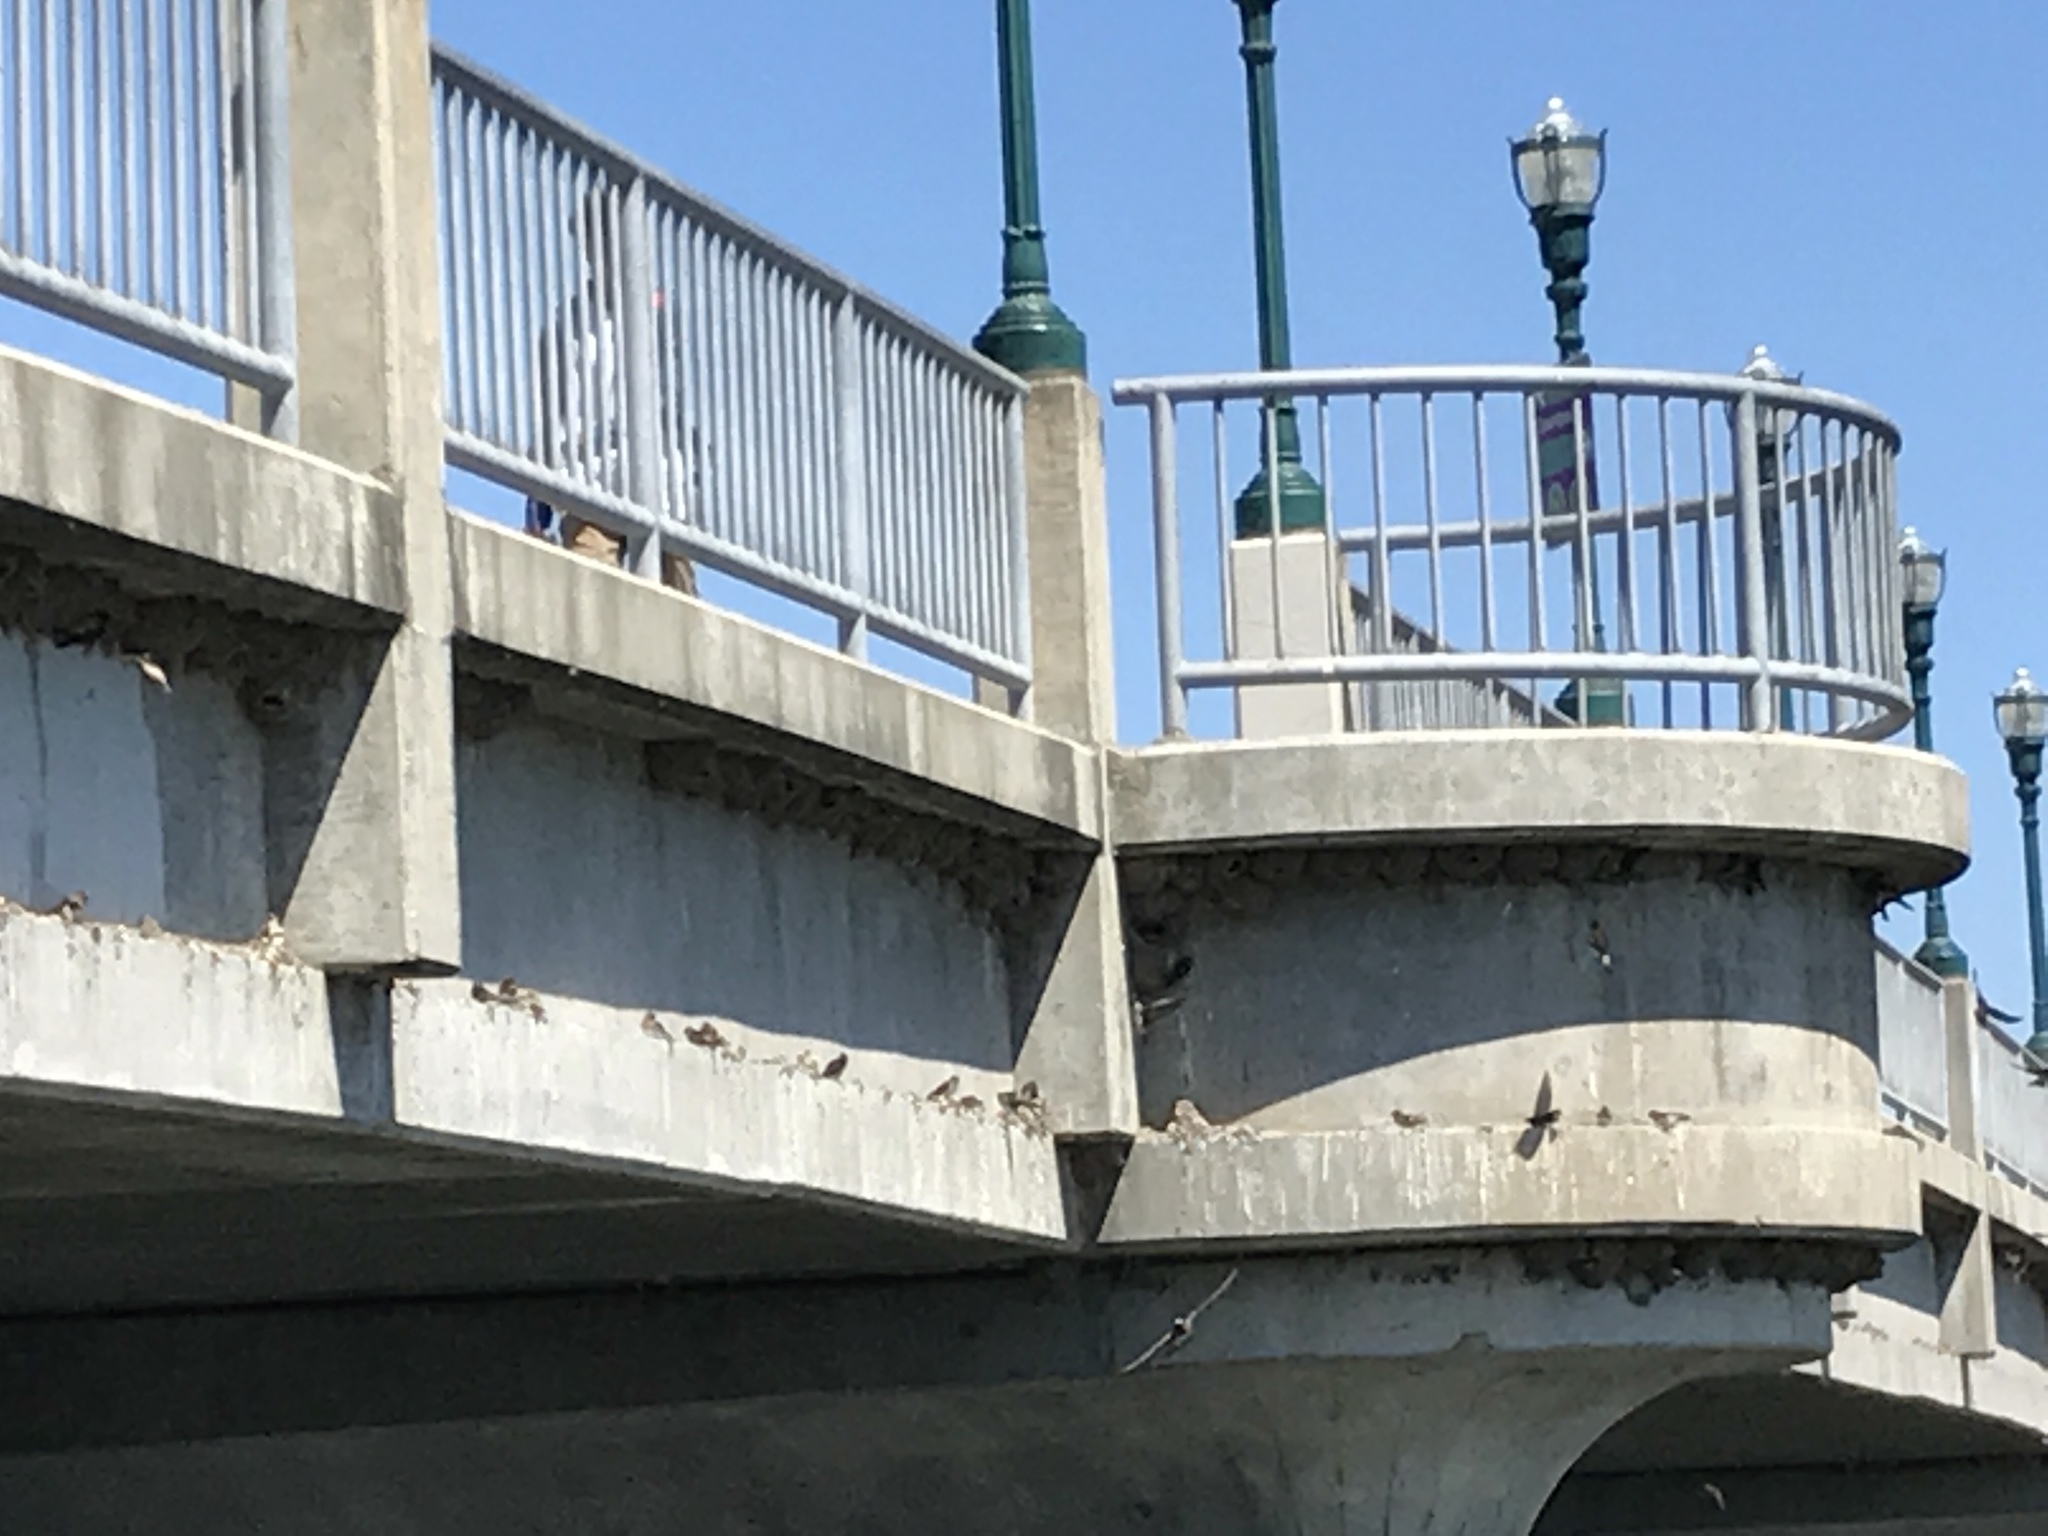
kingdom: Animalia
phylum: Chordata
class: Aves
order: Passeriformes
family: Hirundinidae
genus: Petrochelidon
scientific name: Petrochelidon pyrrhonota
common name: American cliff swallow
